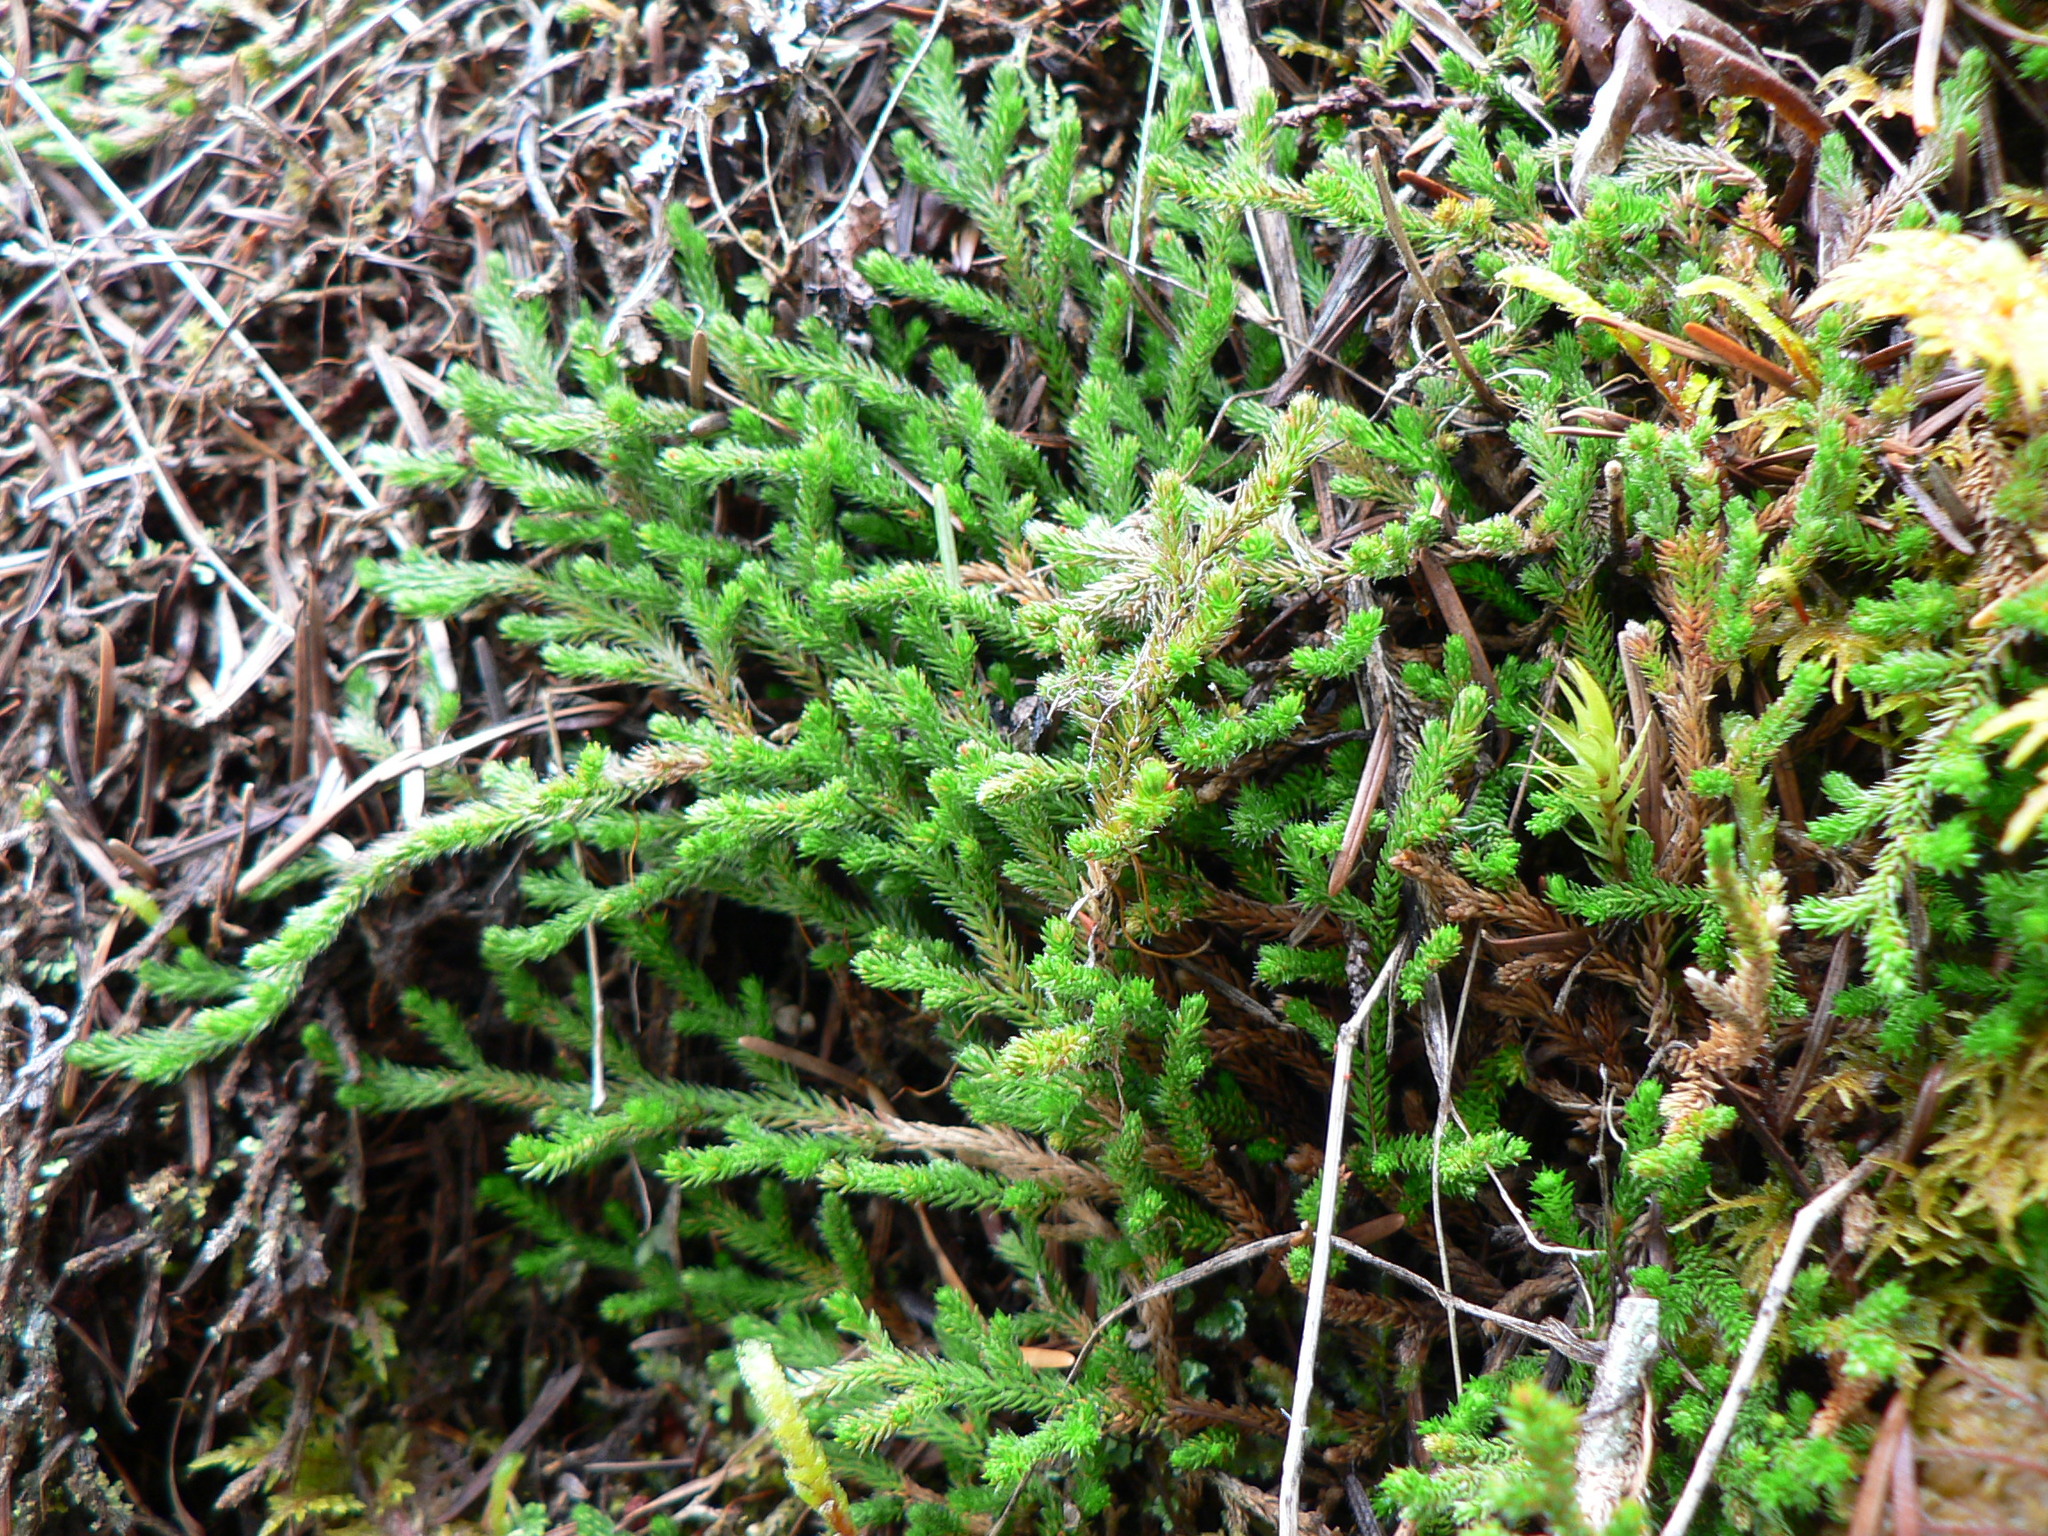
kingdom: Plantae
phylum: Tracheophyta
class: Lycopodiopsida
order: Selaginellales
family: Selaginellaceae
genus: Selaginella
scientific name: Selaginella wallacei
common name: Wallace's selaginella
